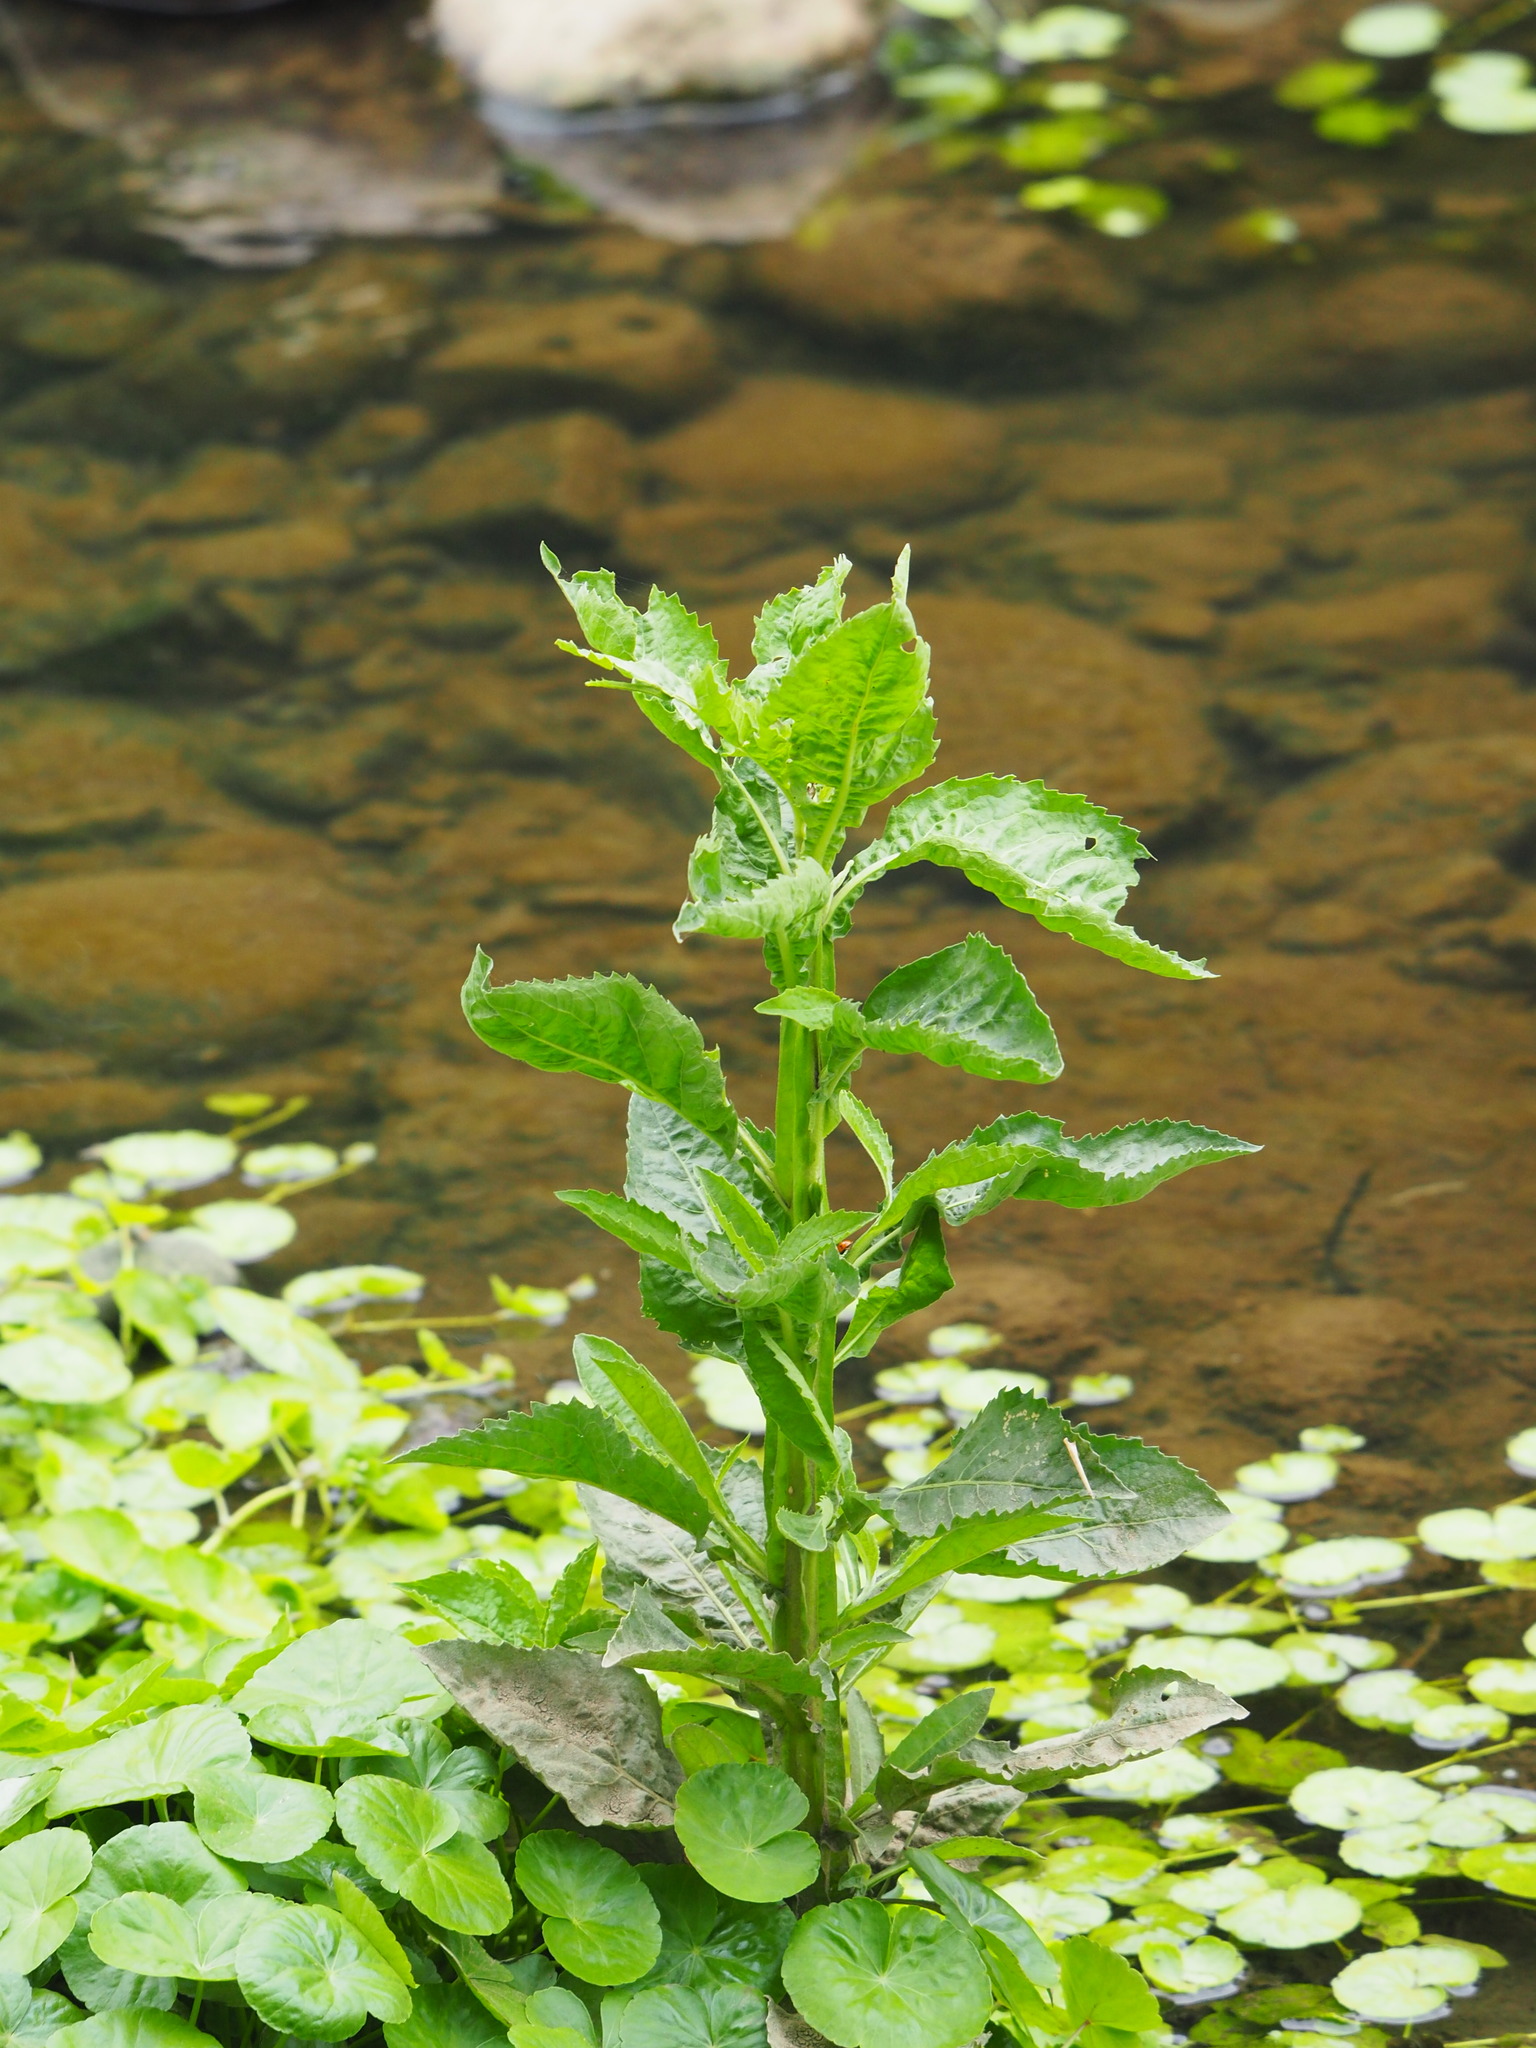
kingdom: Plantae
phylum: Tracheophyta
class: Magnoliopsida
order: Asterales
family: Asteraceae
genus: Pluchea
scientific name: Pluchea sagittalis
